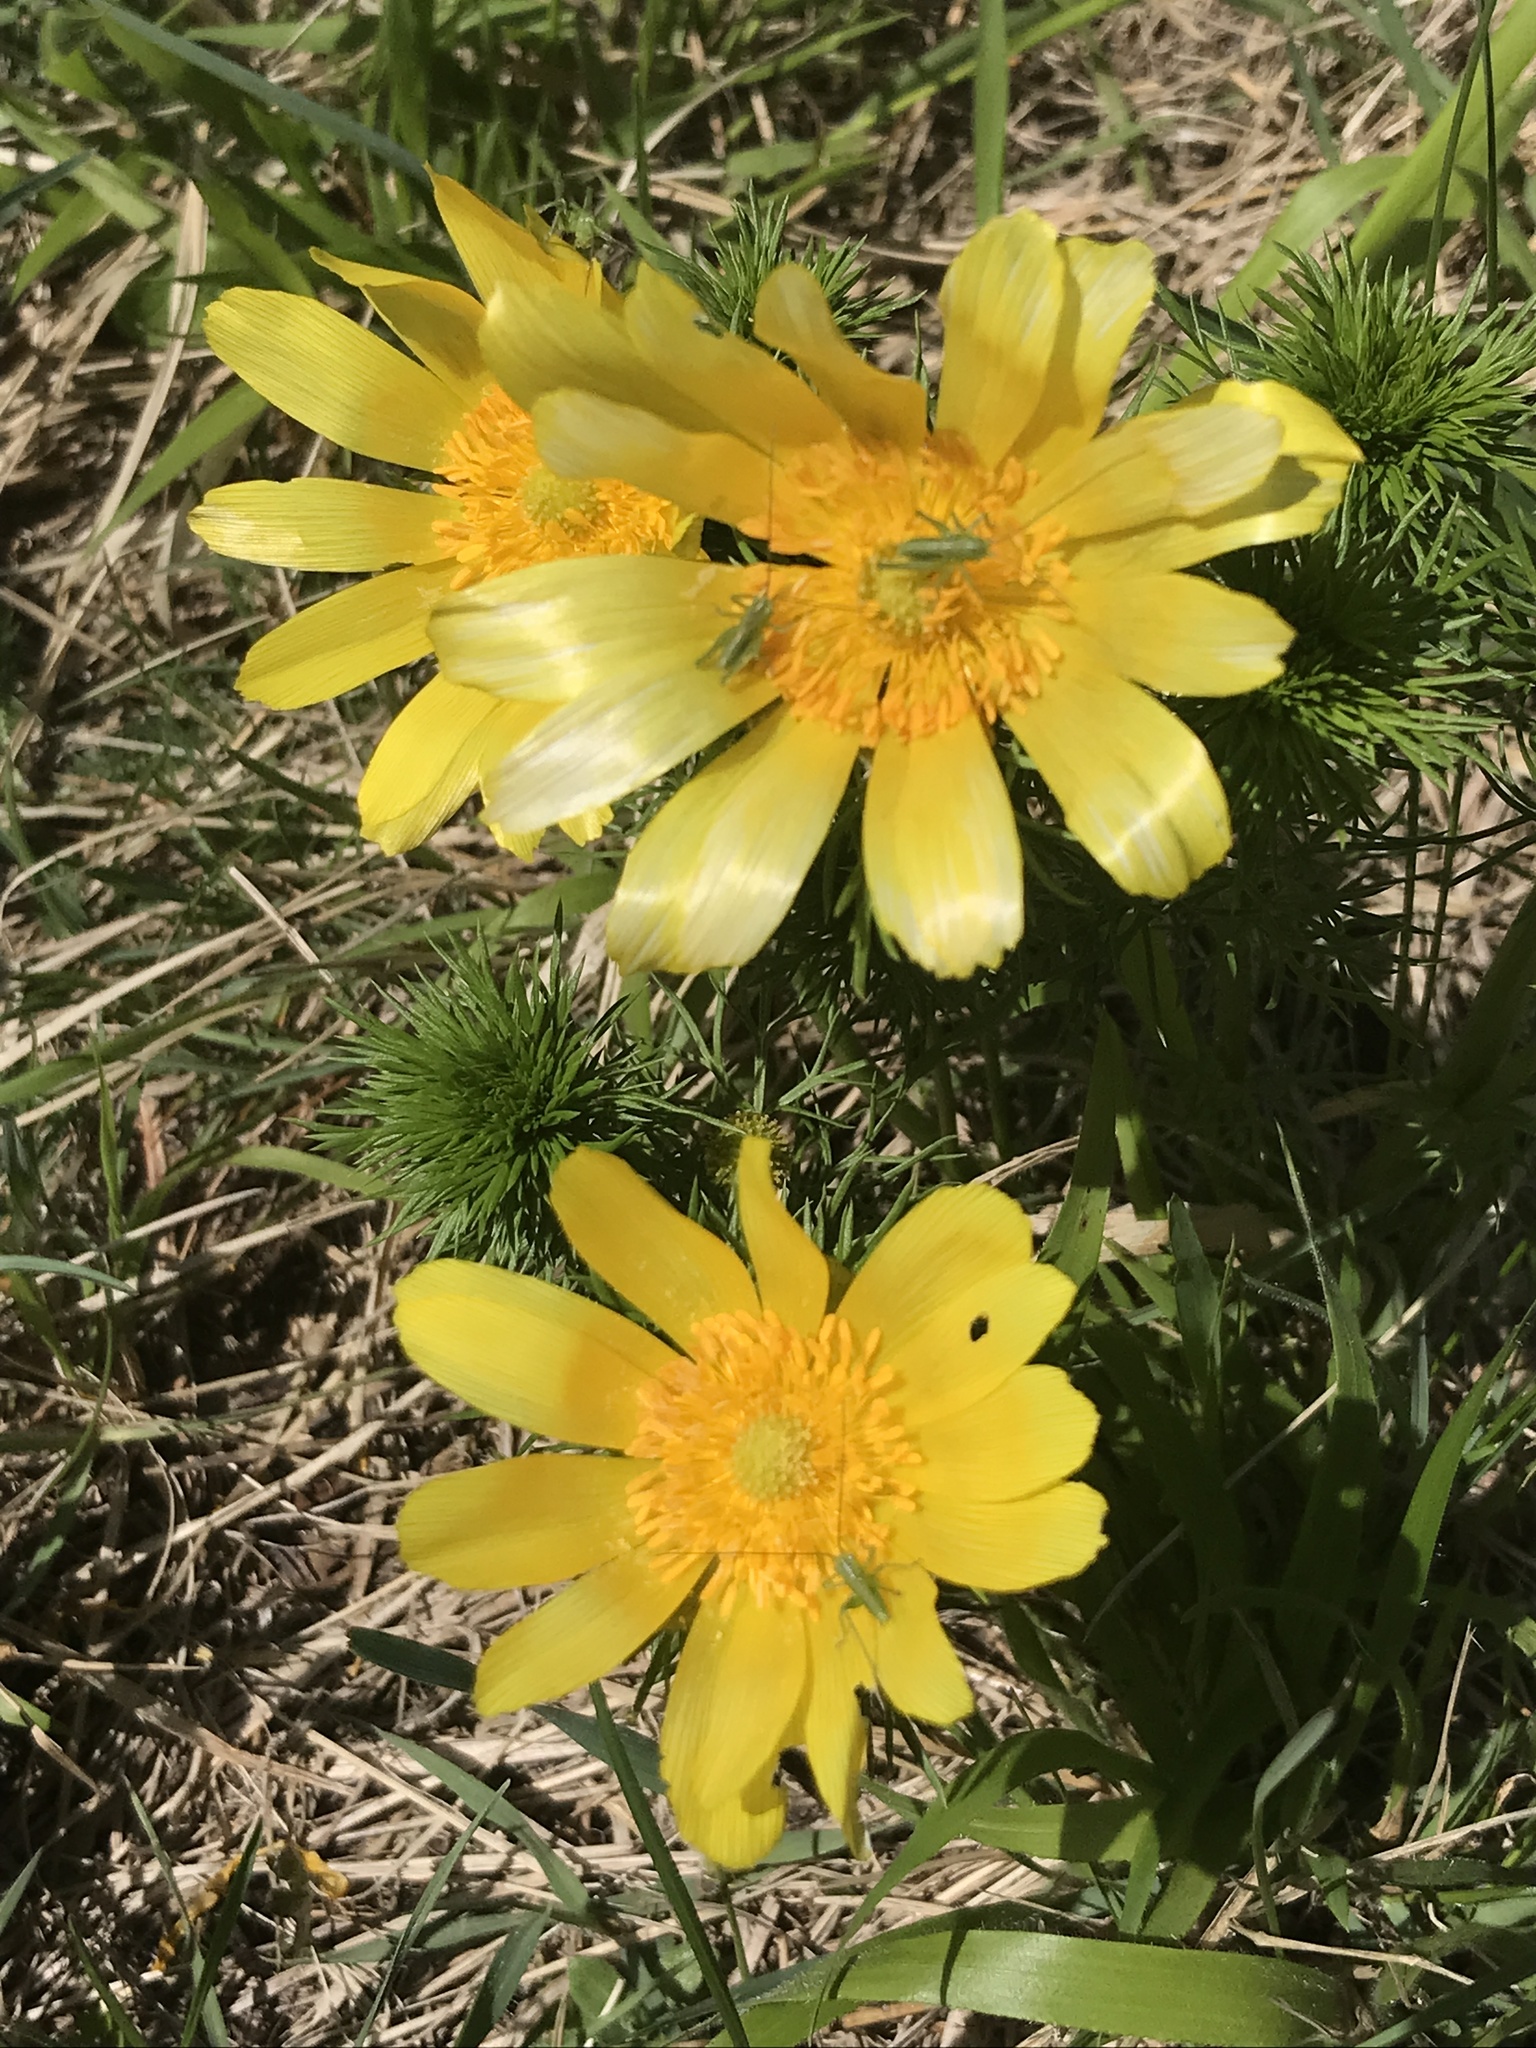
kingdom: Plantae
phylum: Tracheophyta
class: Magnoliopsida
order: Ranunculales
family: Ranunculaceae
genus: Adonis
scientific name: Adonis vernalis
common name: Yellow pheasants-eye
